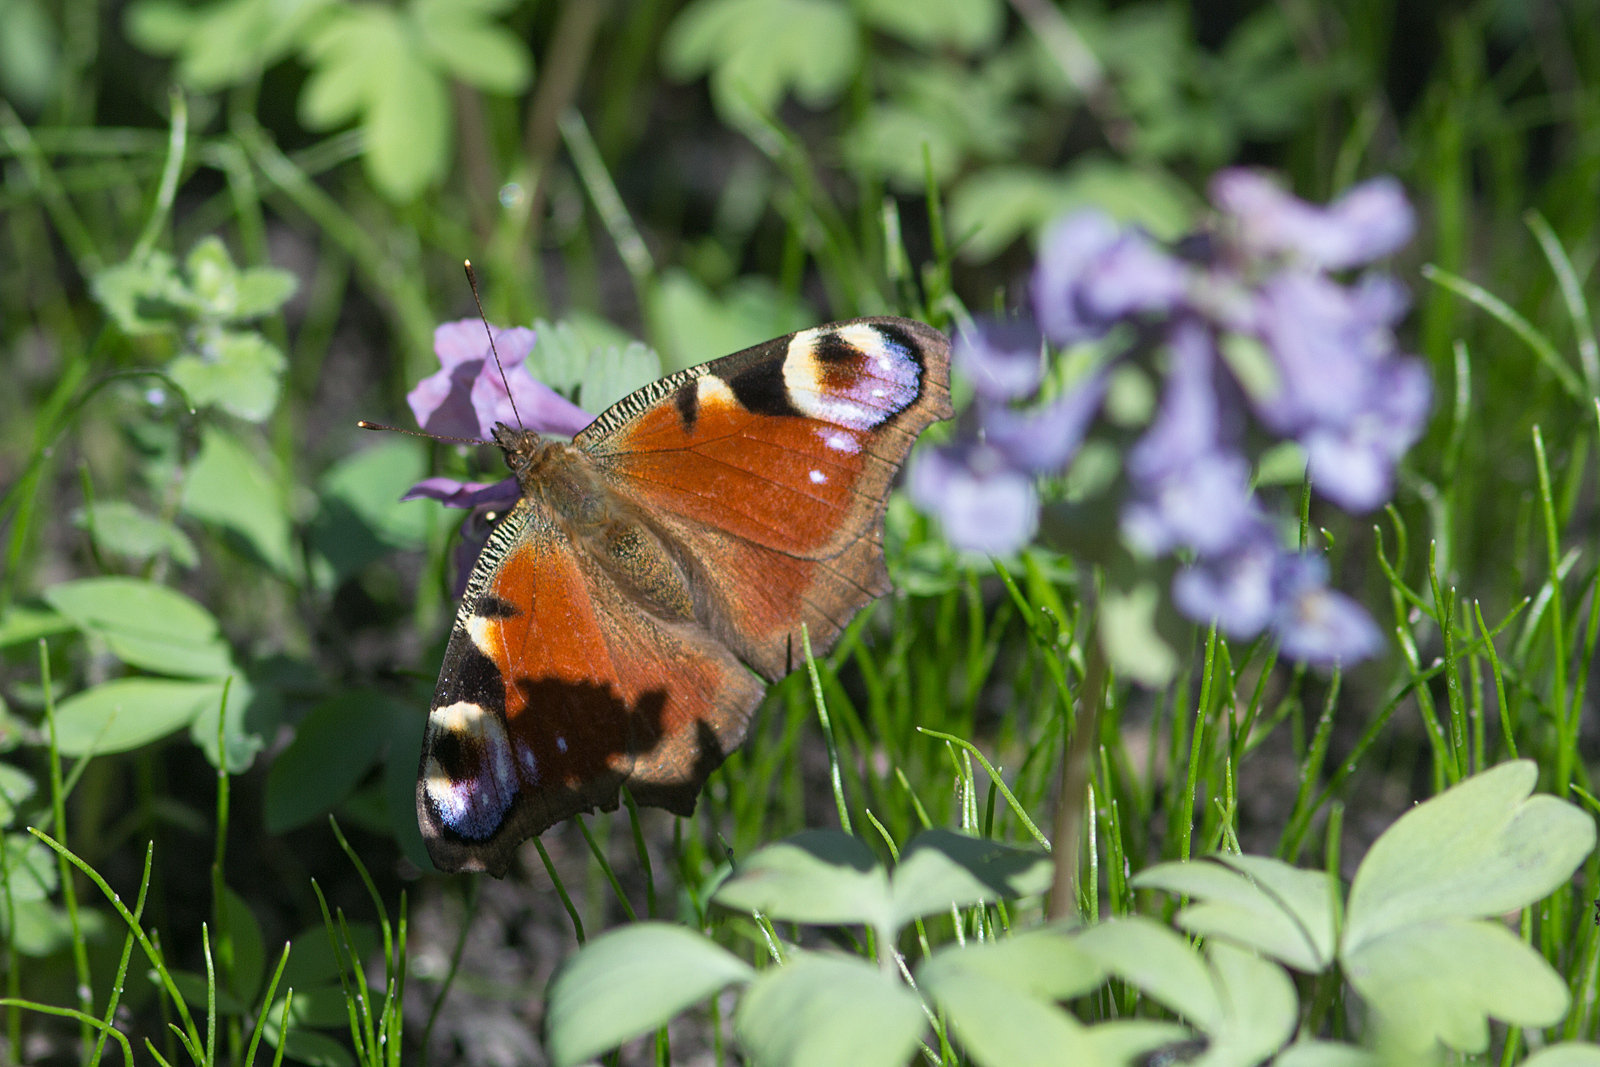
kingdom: Animalia
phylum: Arthropoda
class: Insecta
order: Lepidoptera
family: Nymphalidae
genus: Aglais
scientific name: Aglais io
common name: Peacock
